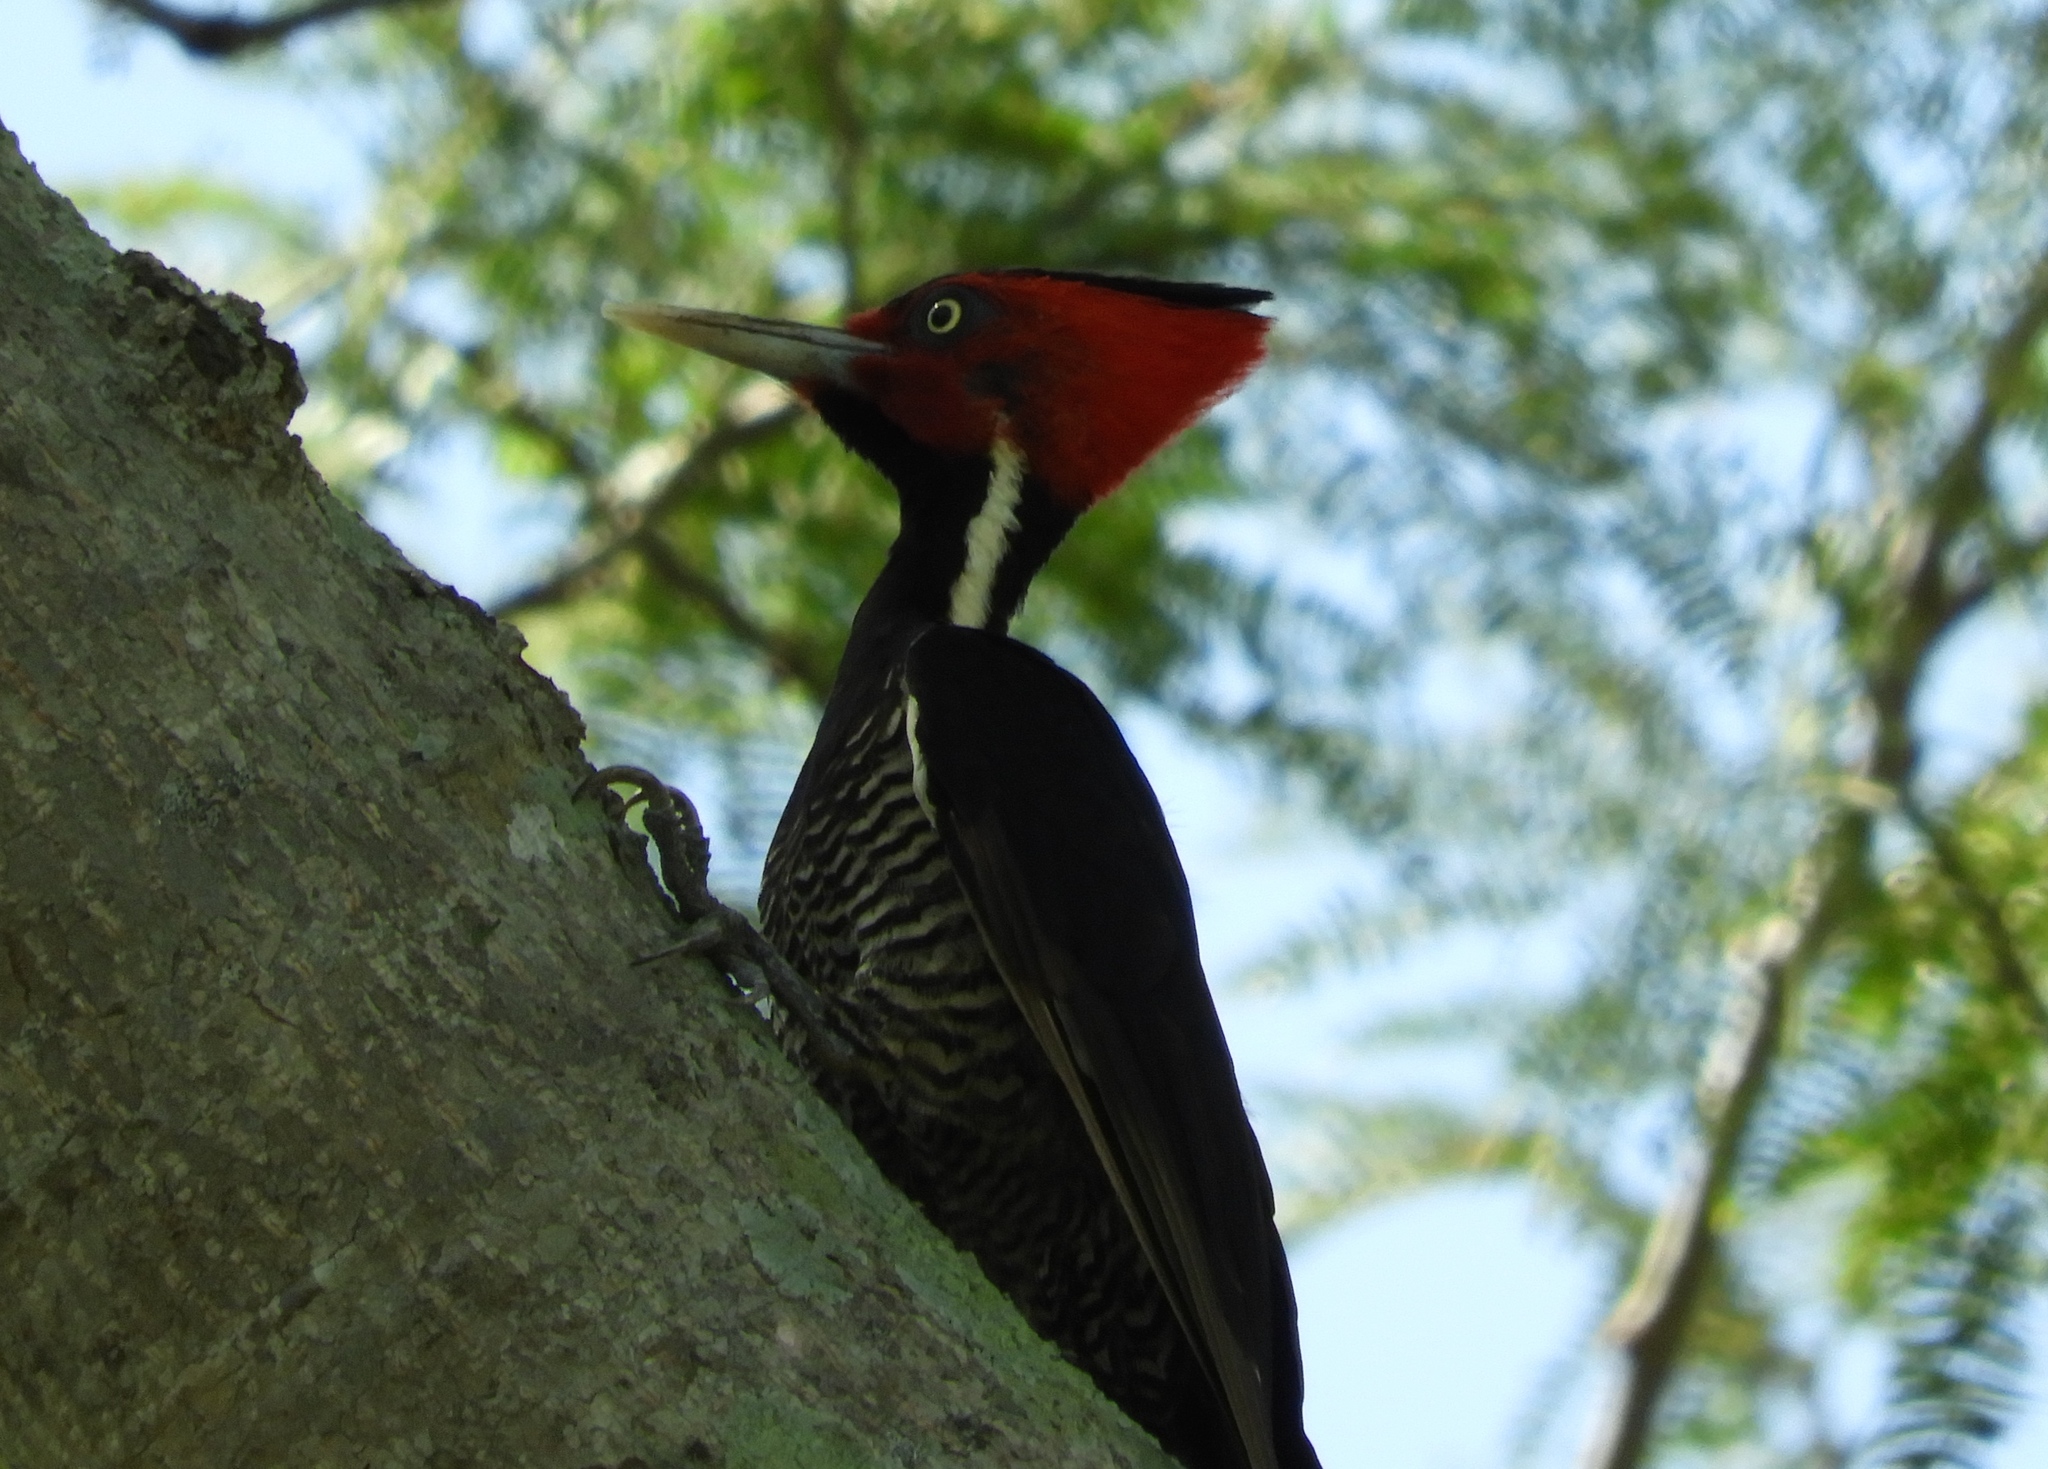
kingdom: Animalia
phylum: Chordata
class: Aves
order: Piciformes
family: Picidae
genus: Campephilus
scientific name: Campephilus guatemalensis
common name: Pale-billed woodpecker
